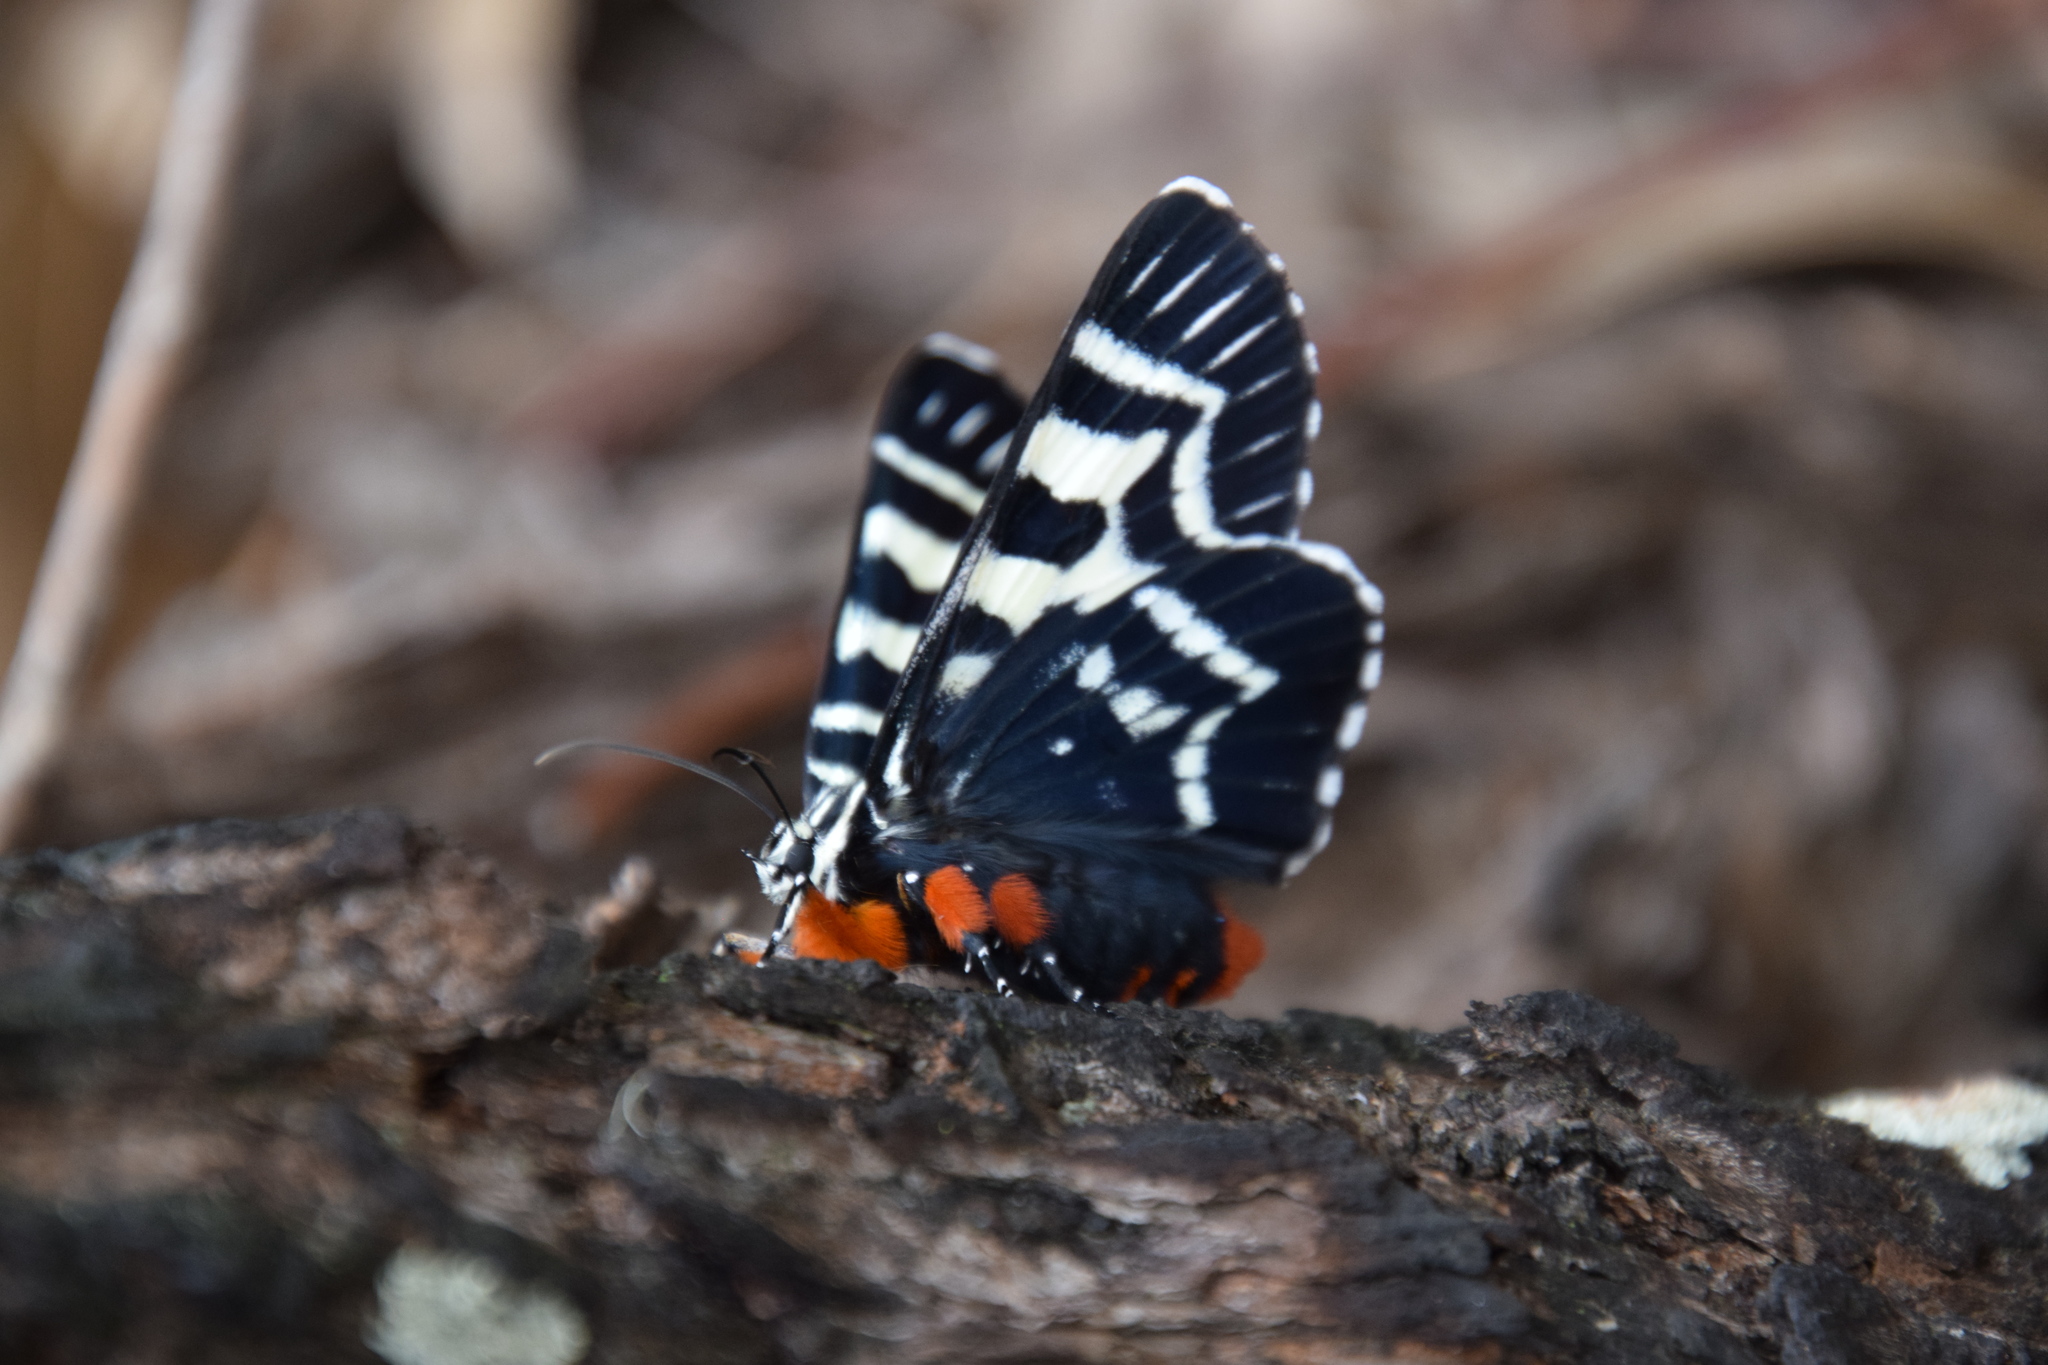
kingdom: Animalia
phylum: Arthropoda
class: Insecta
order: Lepidoptera
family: Noctuidae
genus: Comocrus
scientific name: Comocrus behri
